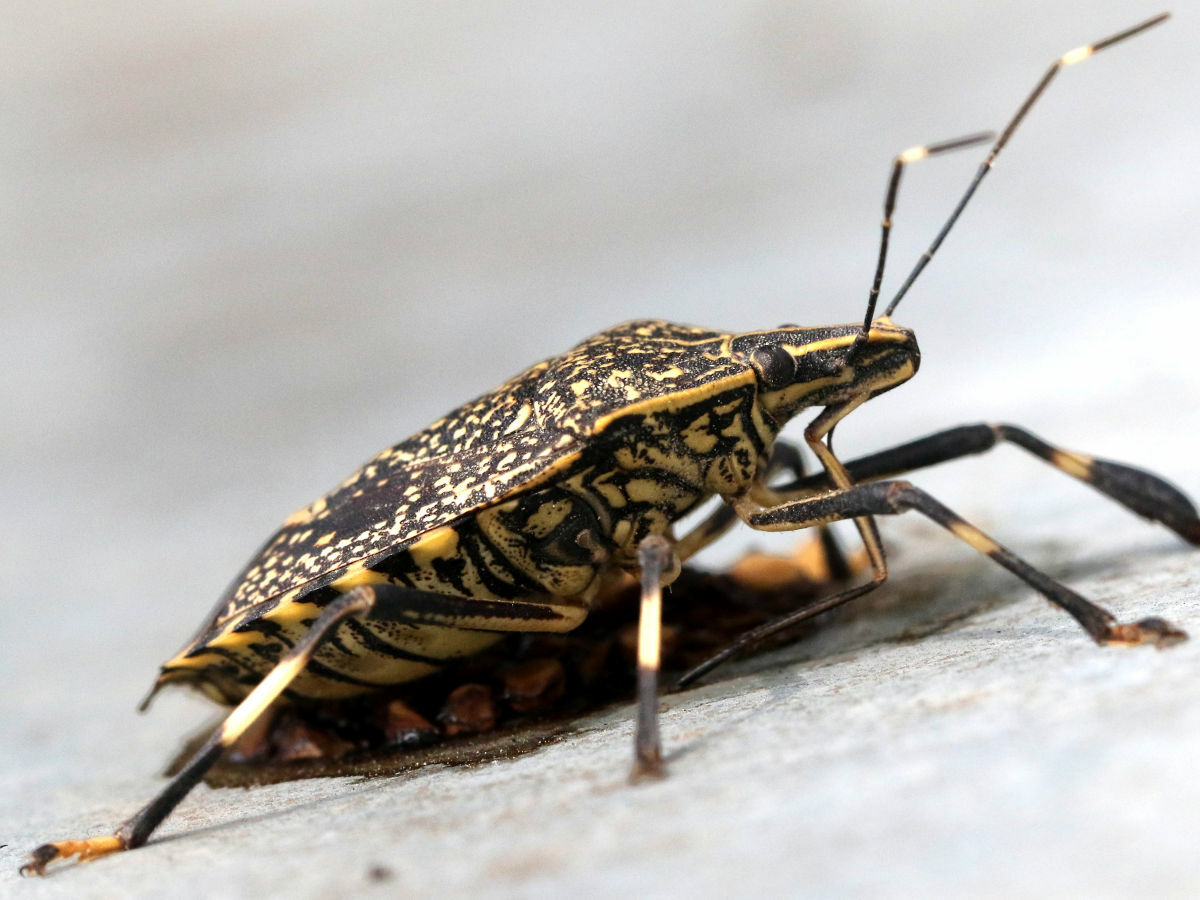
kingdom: Animalia
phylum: Arthropoda
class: Insecta
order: Hemiptera
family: Pentatomidae
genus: Erthesina
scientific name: Erthesina fullo
